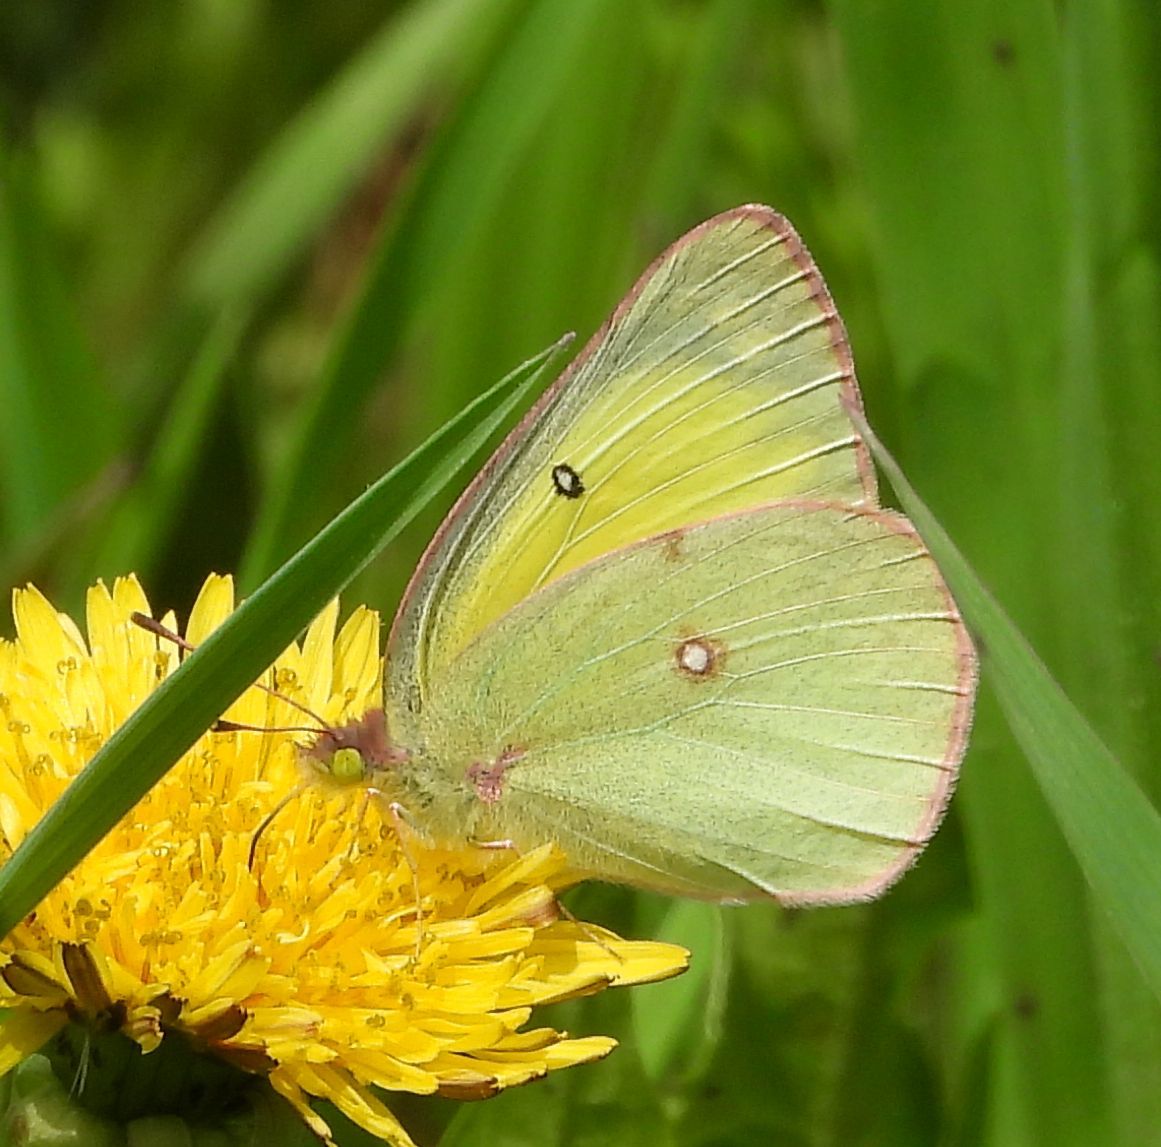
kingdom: Animalia
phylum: Arthropoda
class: Insecta
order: Lepidoptera
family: Pieridae
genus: Colias
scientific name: Colias philodice
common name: Clouded sulphur
